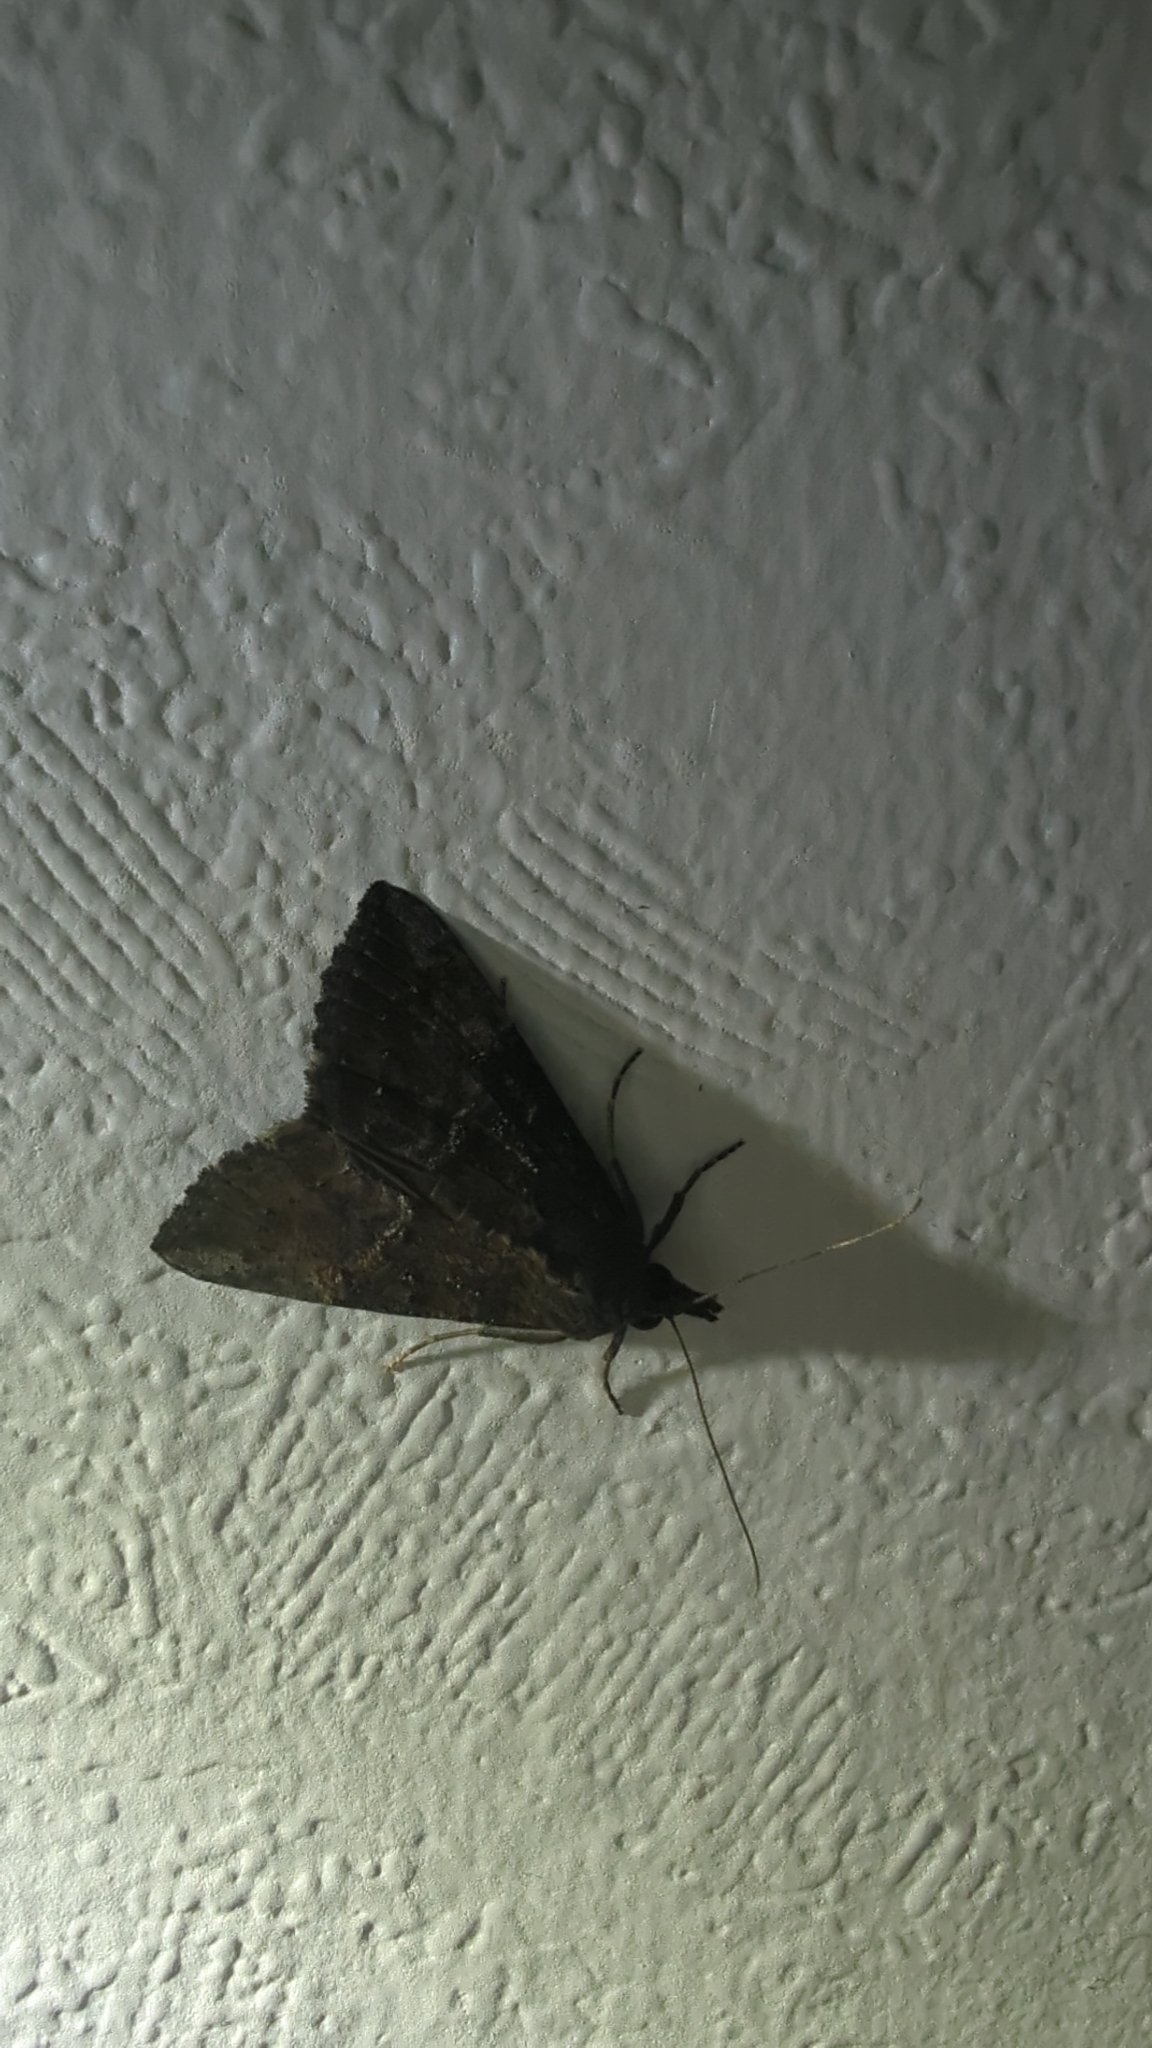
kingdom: Animalia
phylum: Arthropoda
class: Insecta
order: Lepidoptera
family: Erebidae
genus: Hypena
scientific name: Hypena scabra
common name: Green cloverworm
